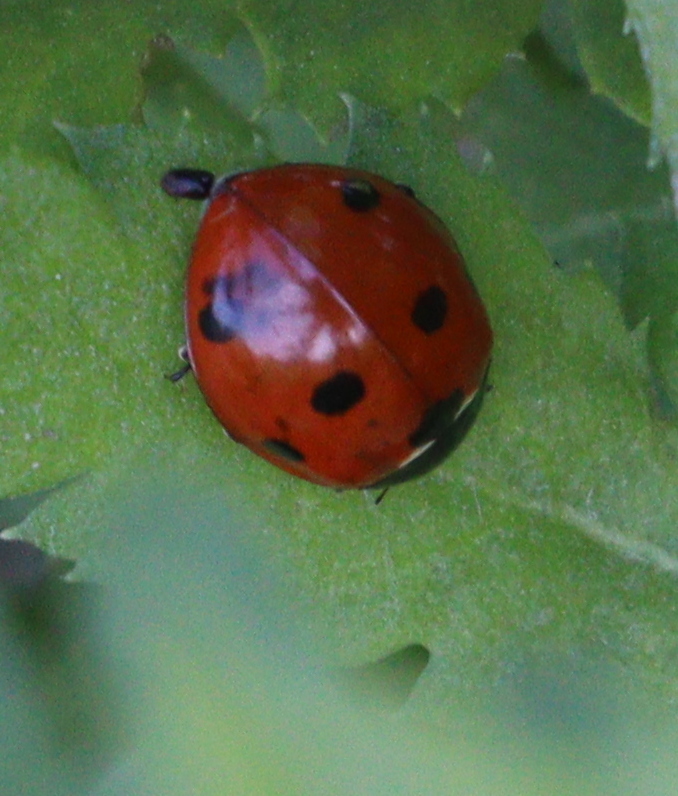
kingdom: Animalia
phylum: Arthropoda
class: Insecta
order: Coleoptera
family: Coccinellidae
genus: Coccinella
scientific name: Coccinella septempunctata
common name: Sevenspotted lady beetle
